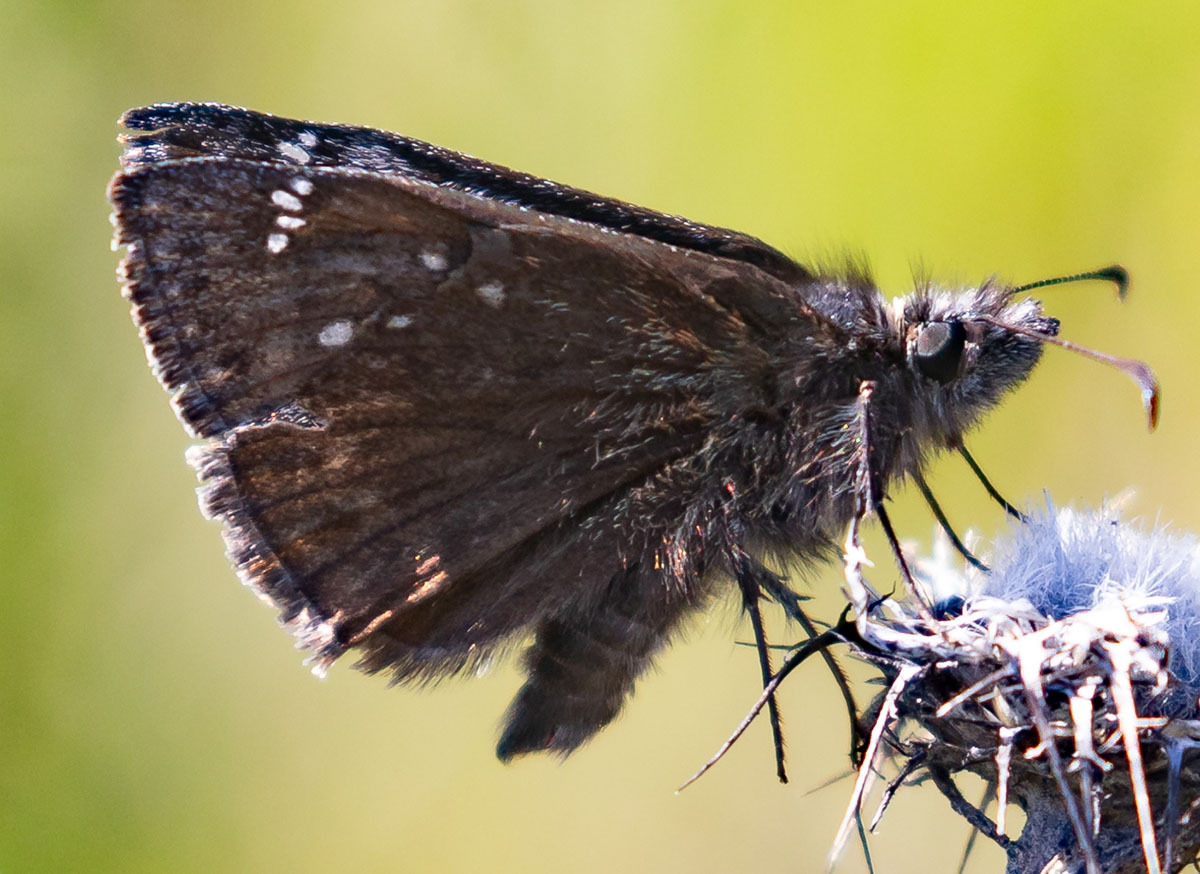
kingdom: Animalia
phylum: Arthropoda
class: Insecta
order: Lepidoptera
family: Hesperiidae
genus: Erynnis
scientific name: Erynnis propertius
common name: Propertius duskywing
